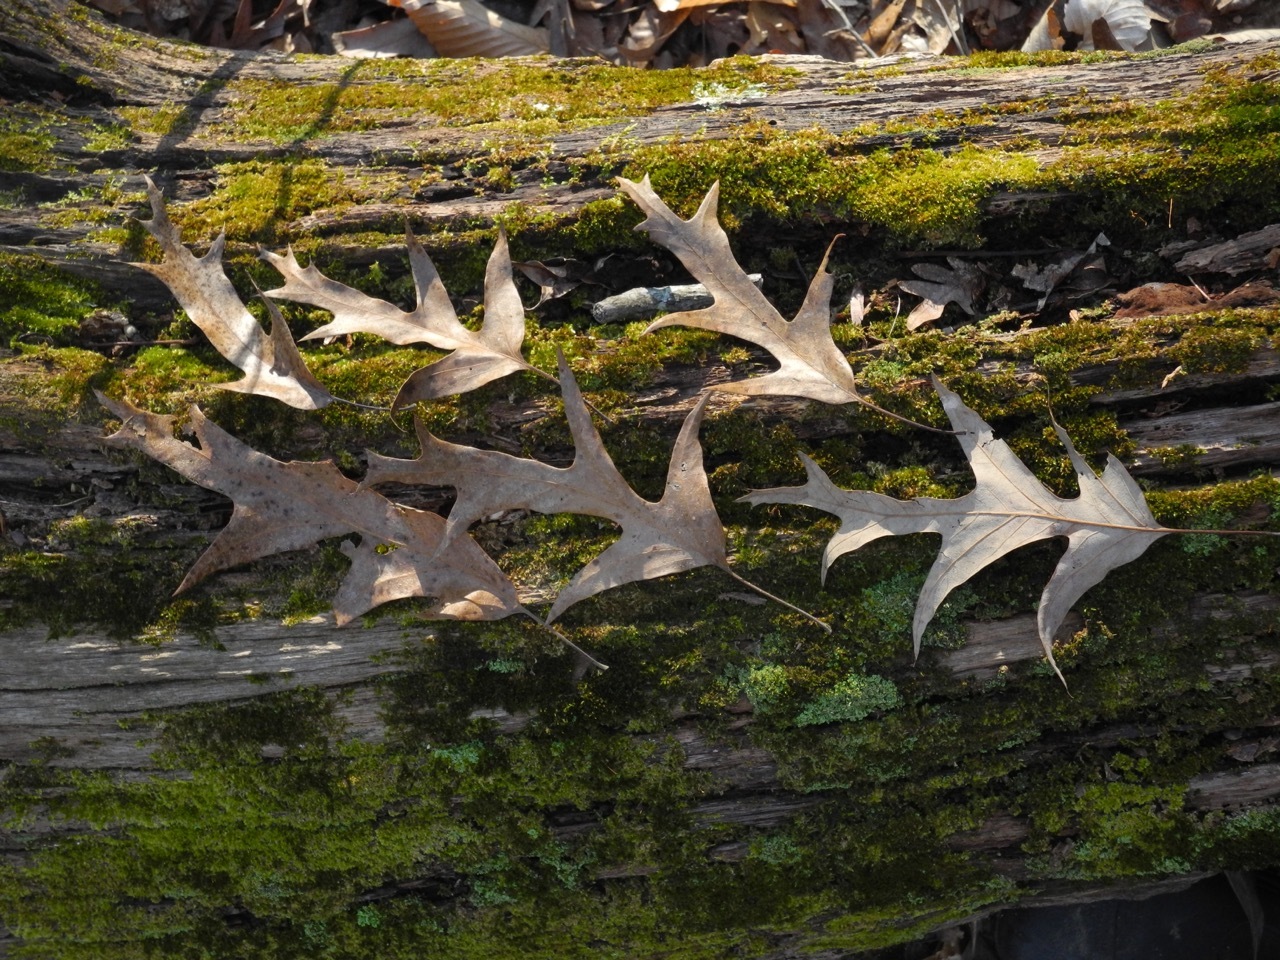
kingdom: Plantae
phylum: Tracheophyta
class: Magnoliopsida
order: Fagales
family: Fagaceae
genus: Quercus
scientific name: Quercus pagoda
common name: Cherrybark oak
